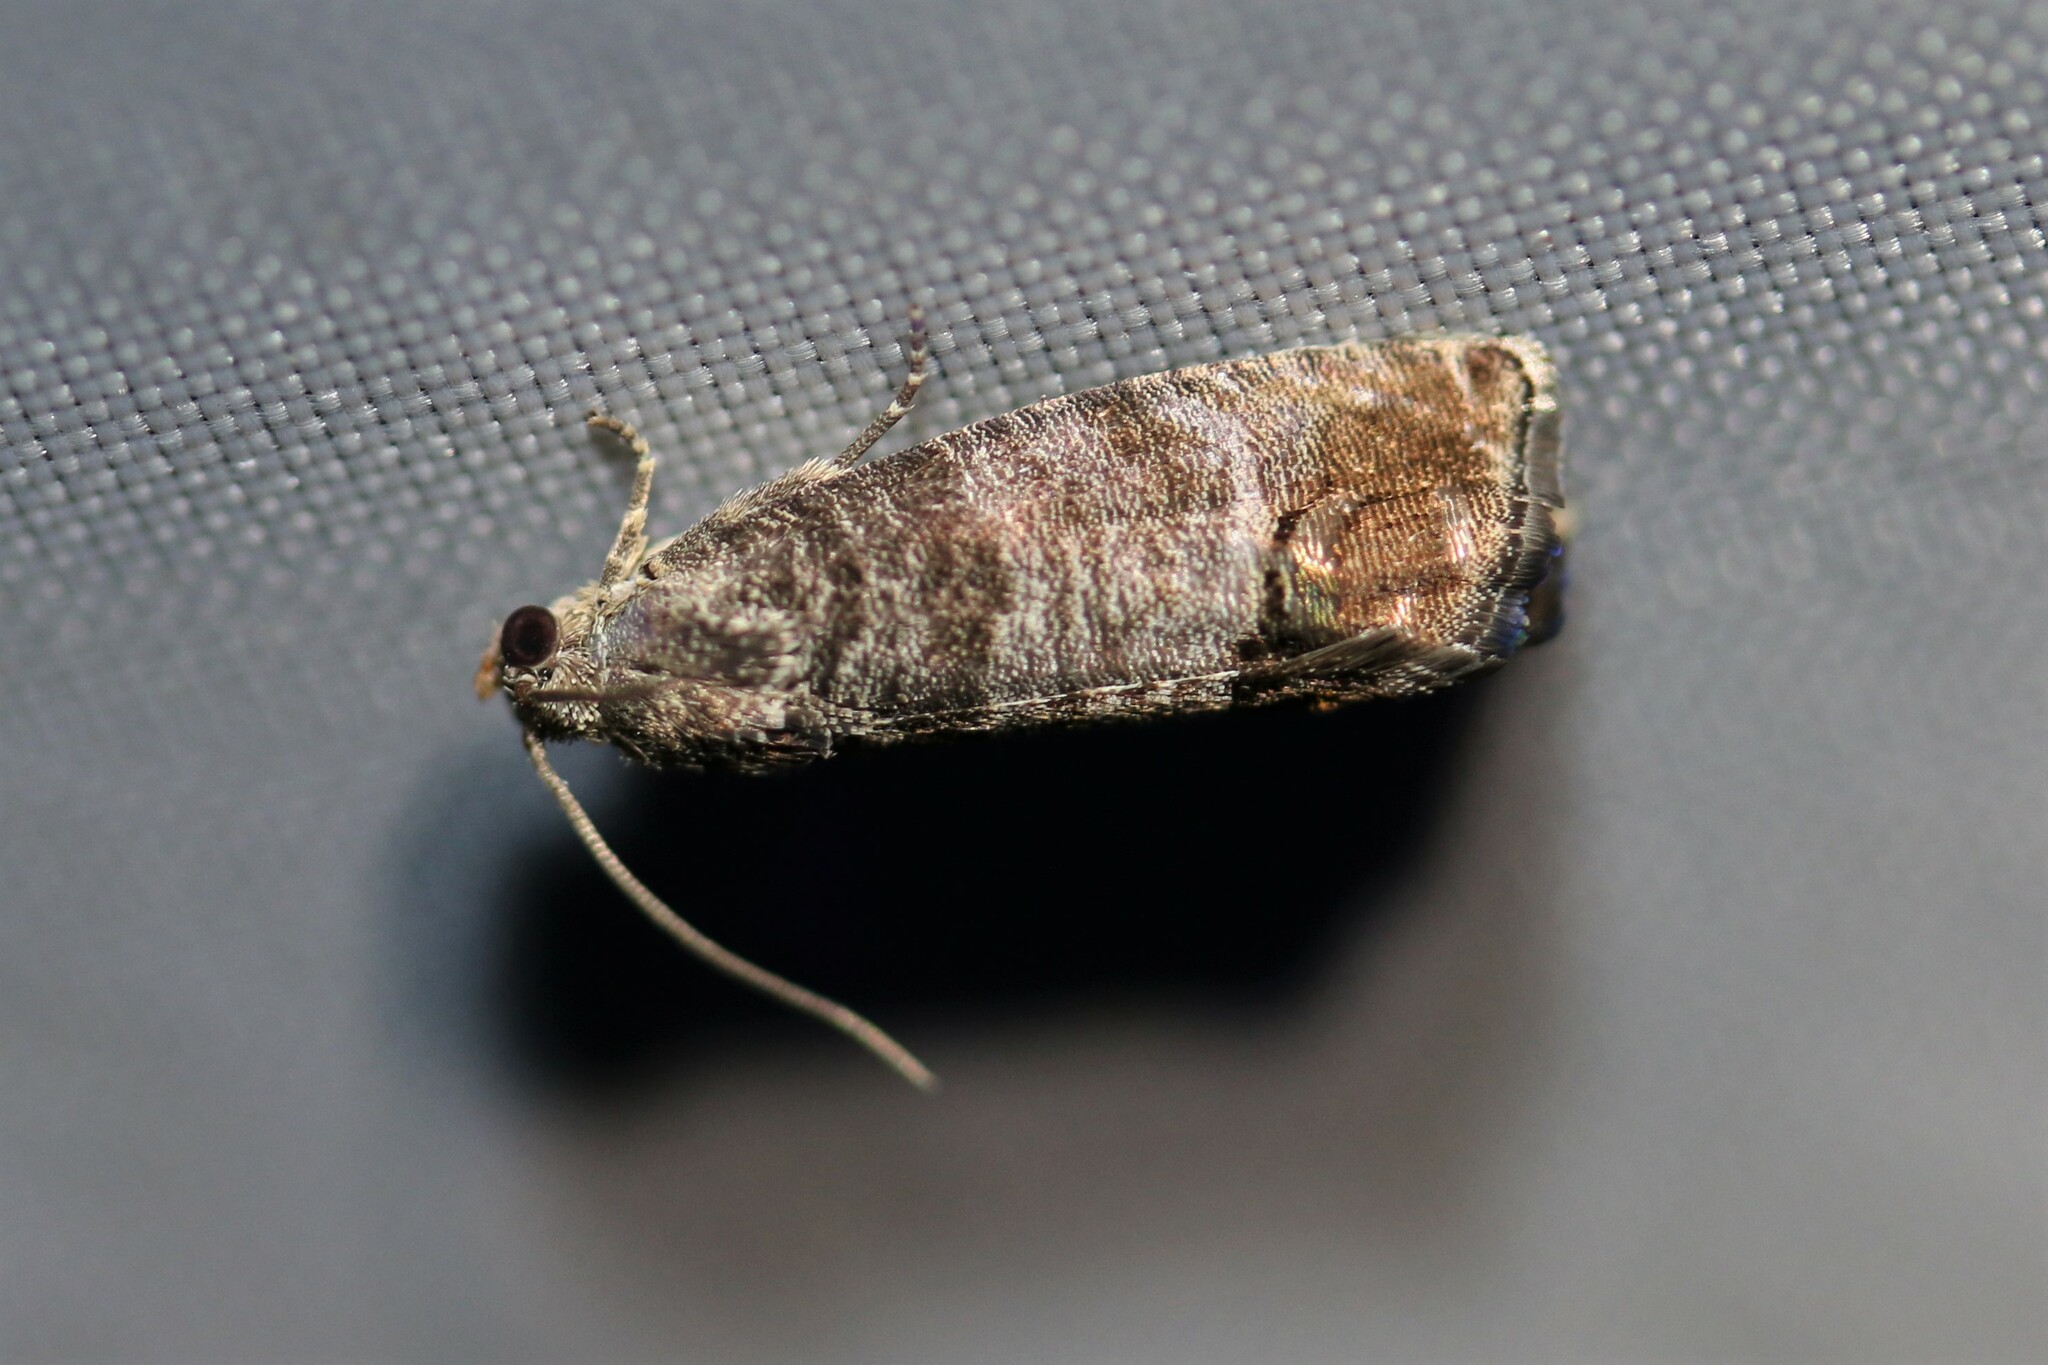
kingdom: Animalia
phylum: Arthropoda
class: Insecta
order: Lepidoptera
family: Tortricidae
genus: Cydia
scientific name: Cydia pomonella
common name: Codling moth
